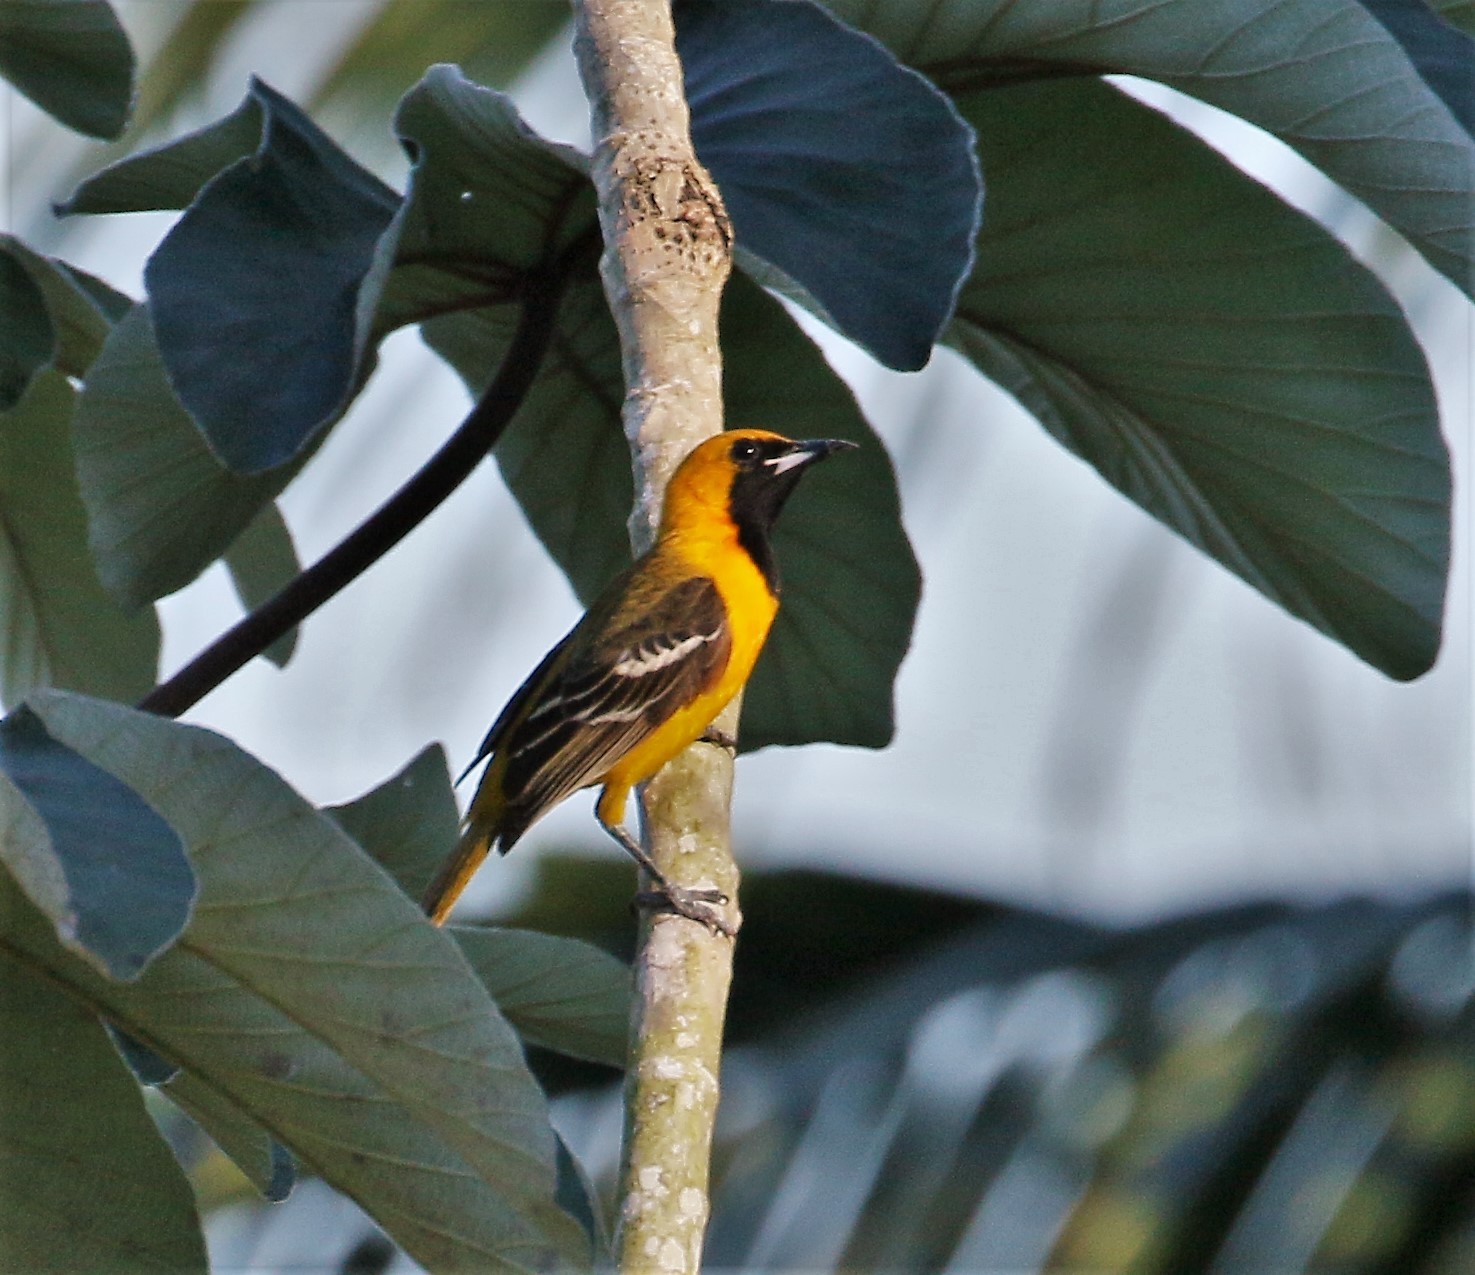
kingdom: Animalia
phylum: Chordata
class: Aves
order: Passeriformes
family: Icteridae
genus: Icterus
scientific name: Icterus cucullatus
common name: Hooded oriole
